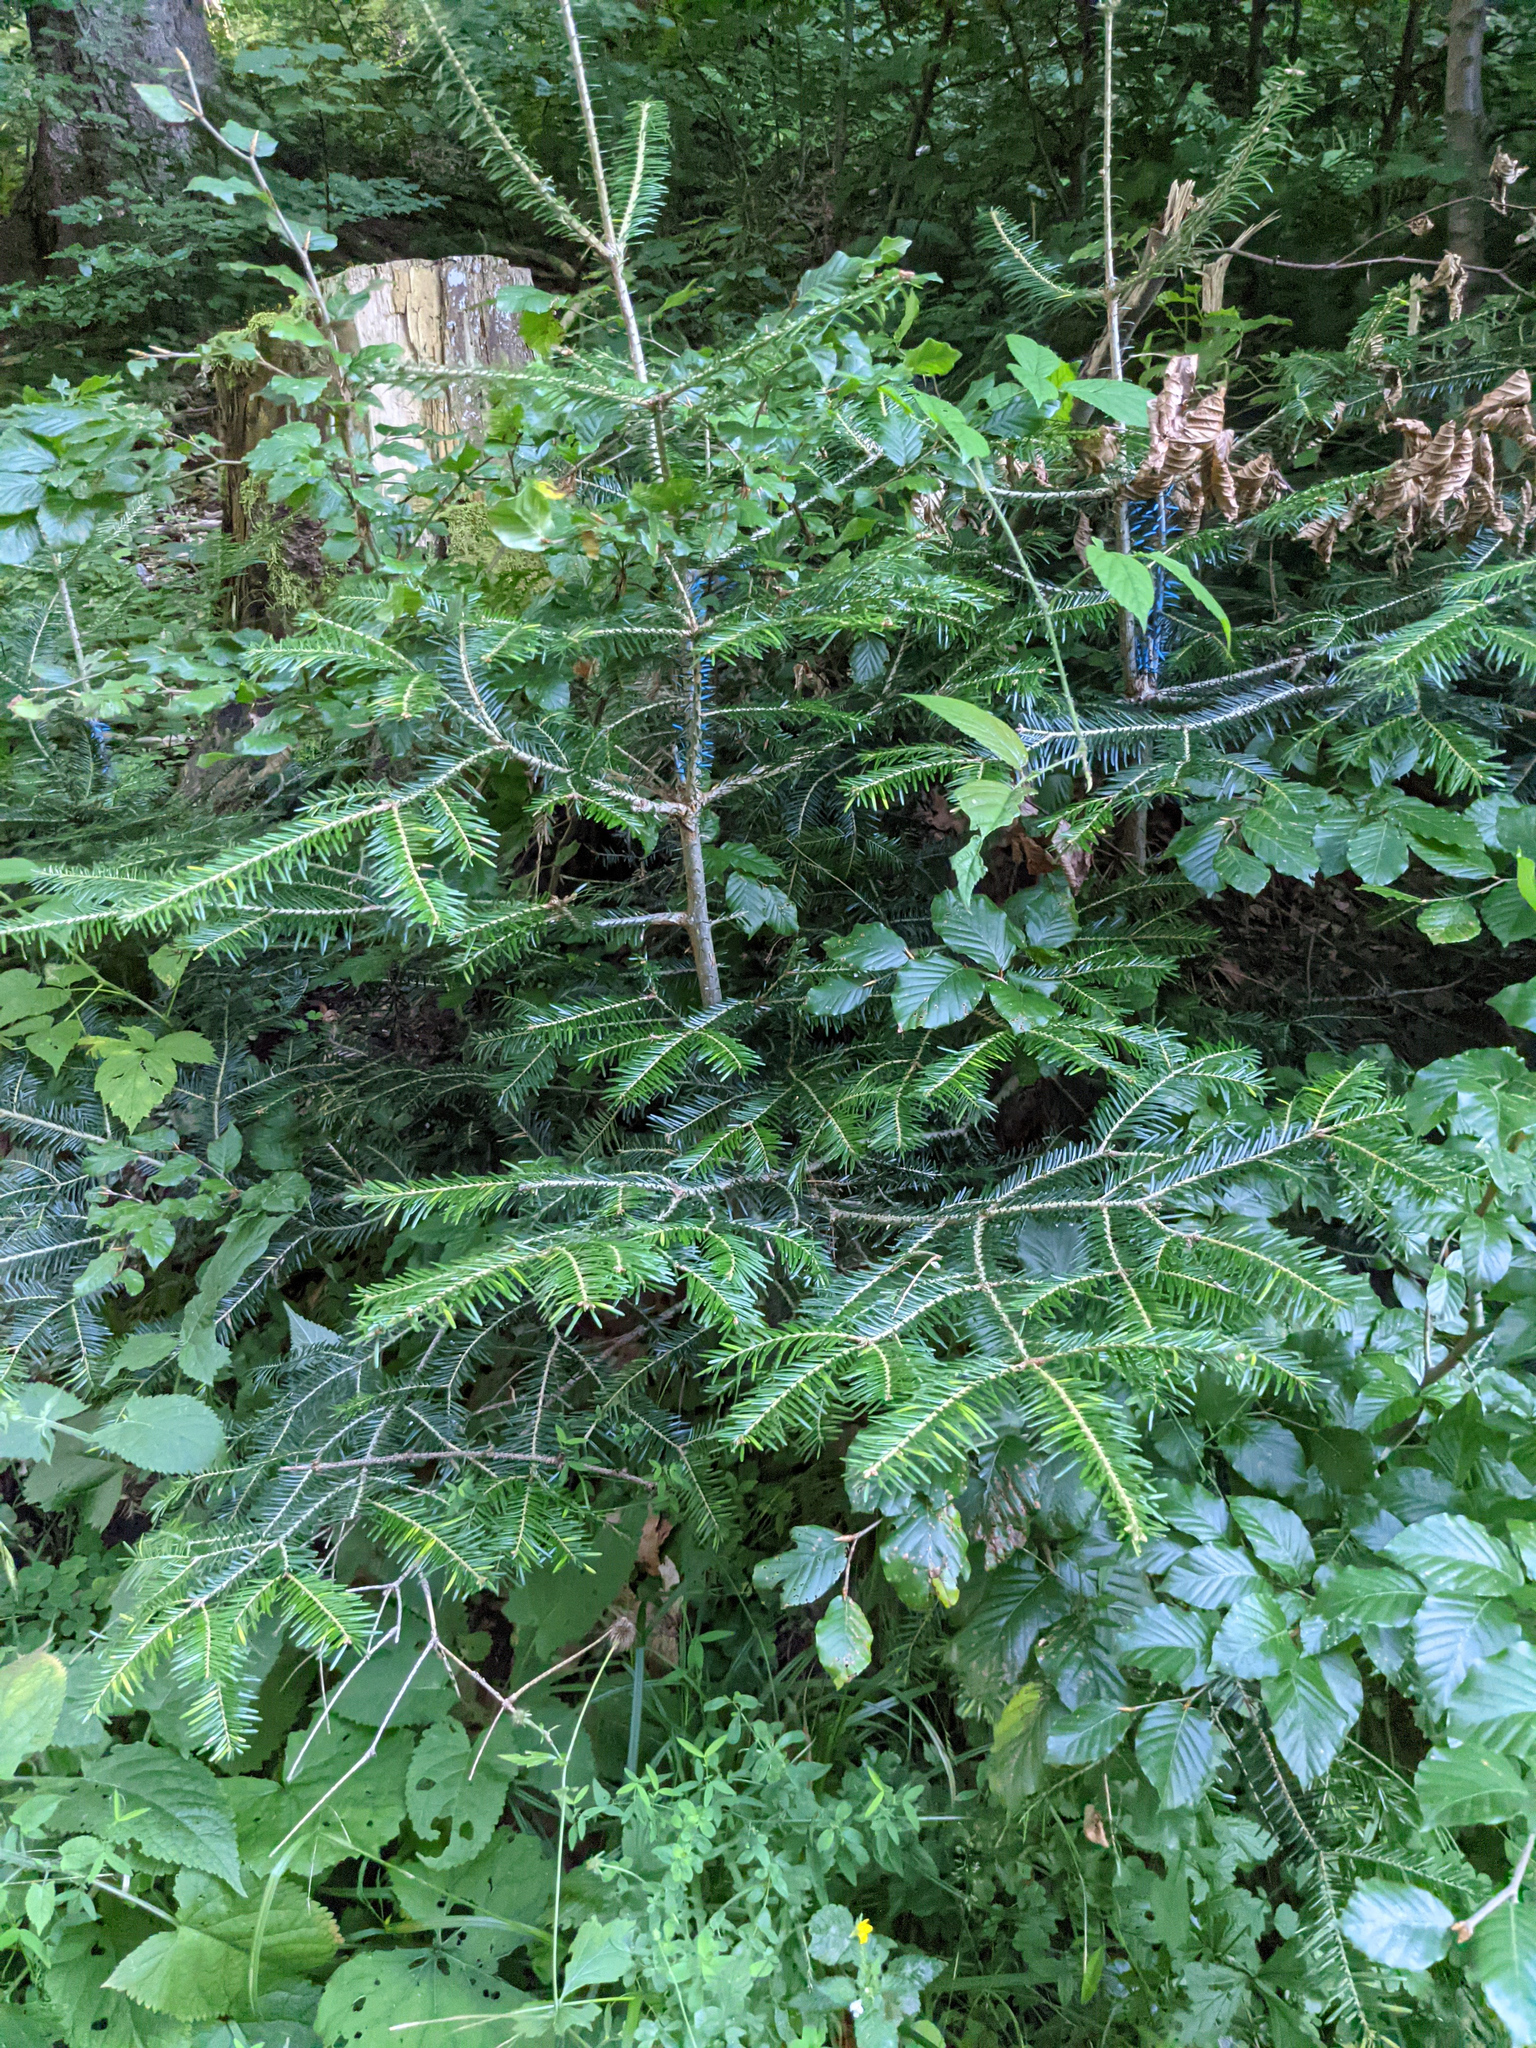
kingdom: Plantae
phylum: Tracheophyta
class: Pinopsida
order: Pinales
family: Pinaceae
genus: Abies
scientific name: Abies alba
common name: Silver fir
